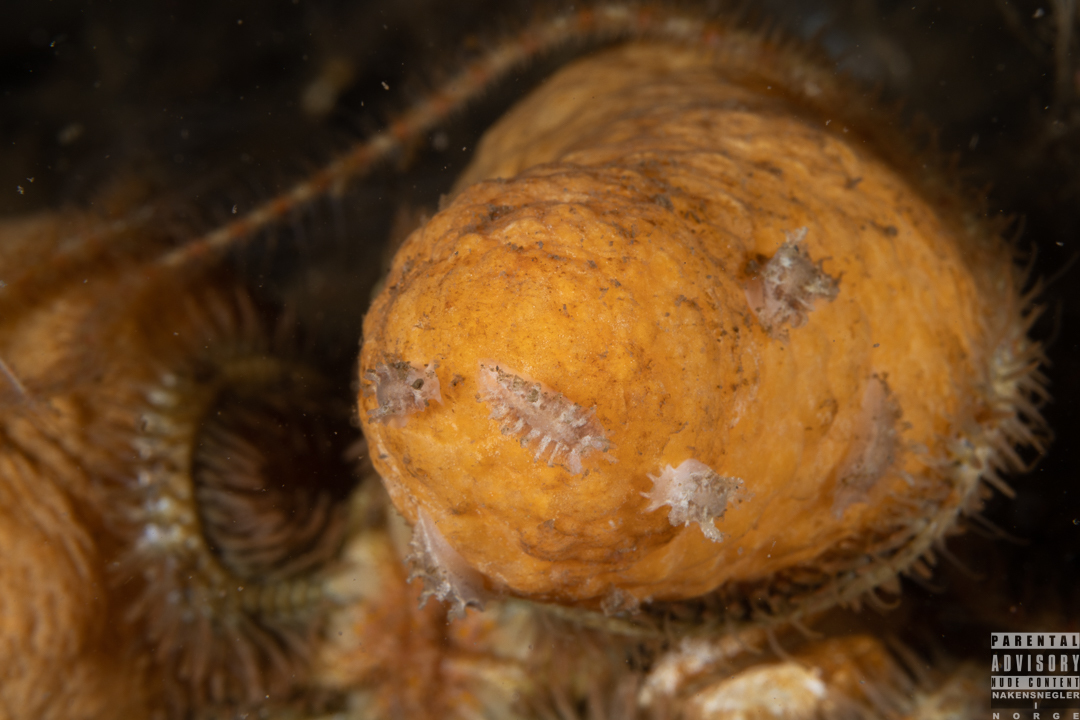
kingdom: Animalia
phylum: Mollusca
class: Gastropoda
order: Nudibranchia
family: Tritoniidae
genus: Duvaucelia
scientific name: Duvaucelia plebeia
